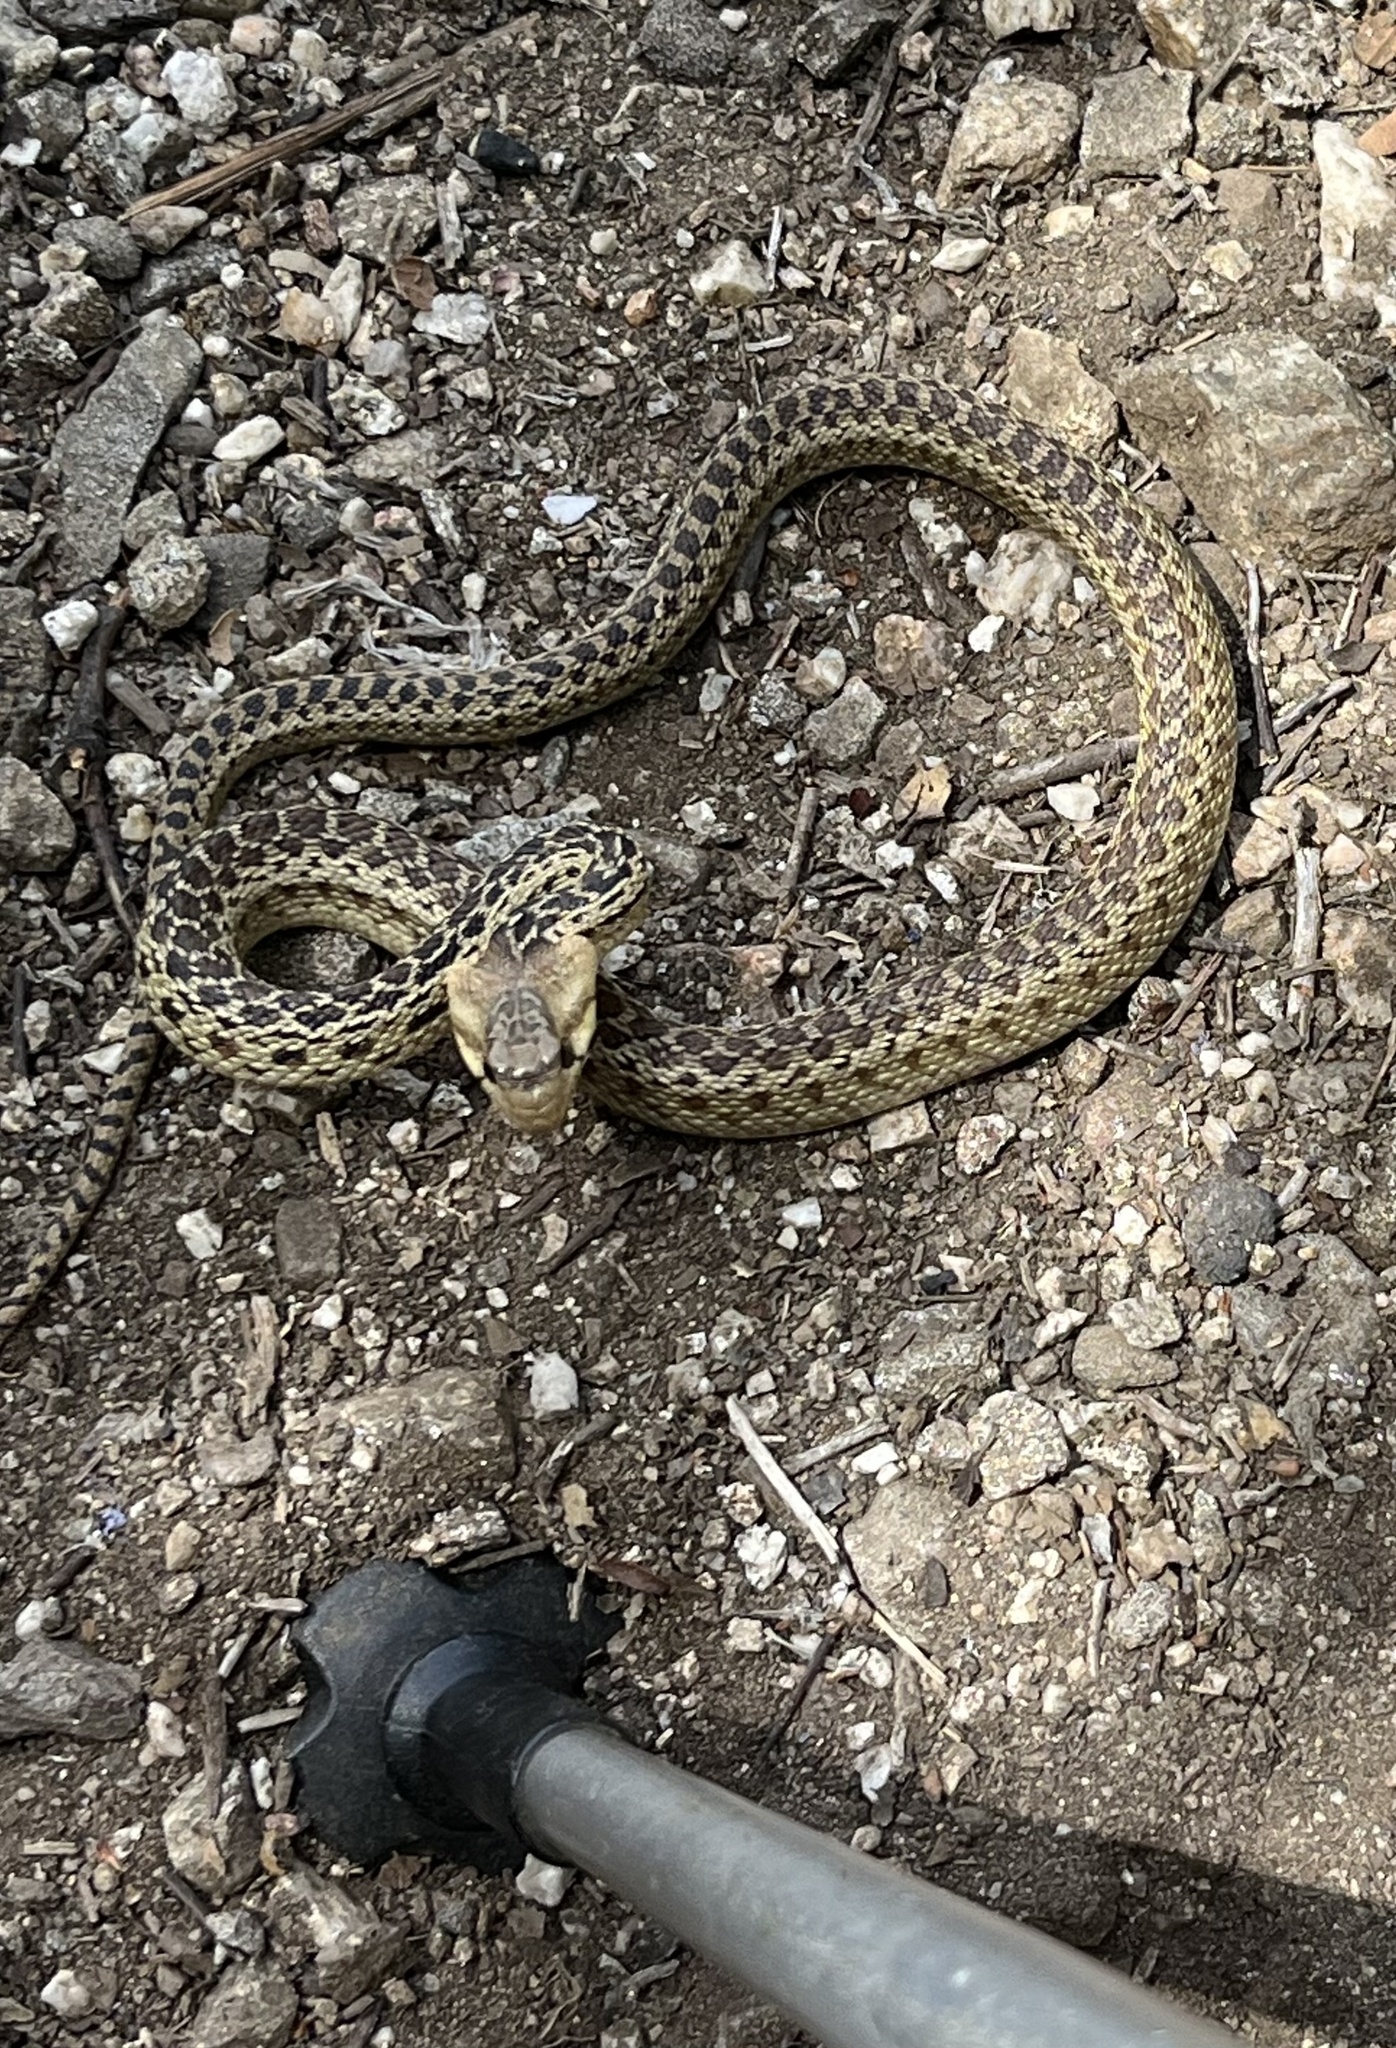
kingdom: Animalia
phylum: Chordata
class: Squamata
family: Colubridae
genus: Pituophis
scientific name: Pituophis catenifer
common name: Gopher snake
